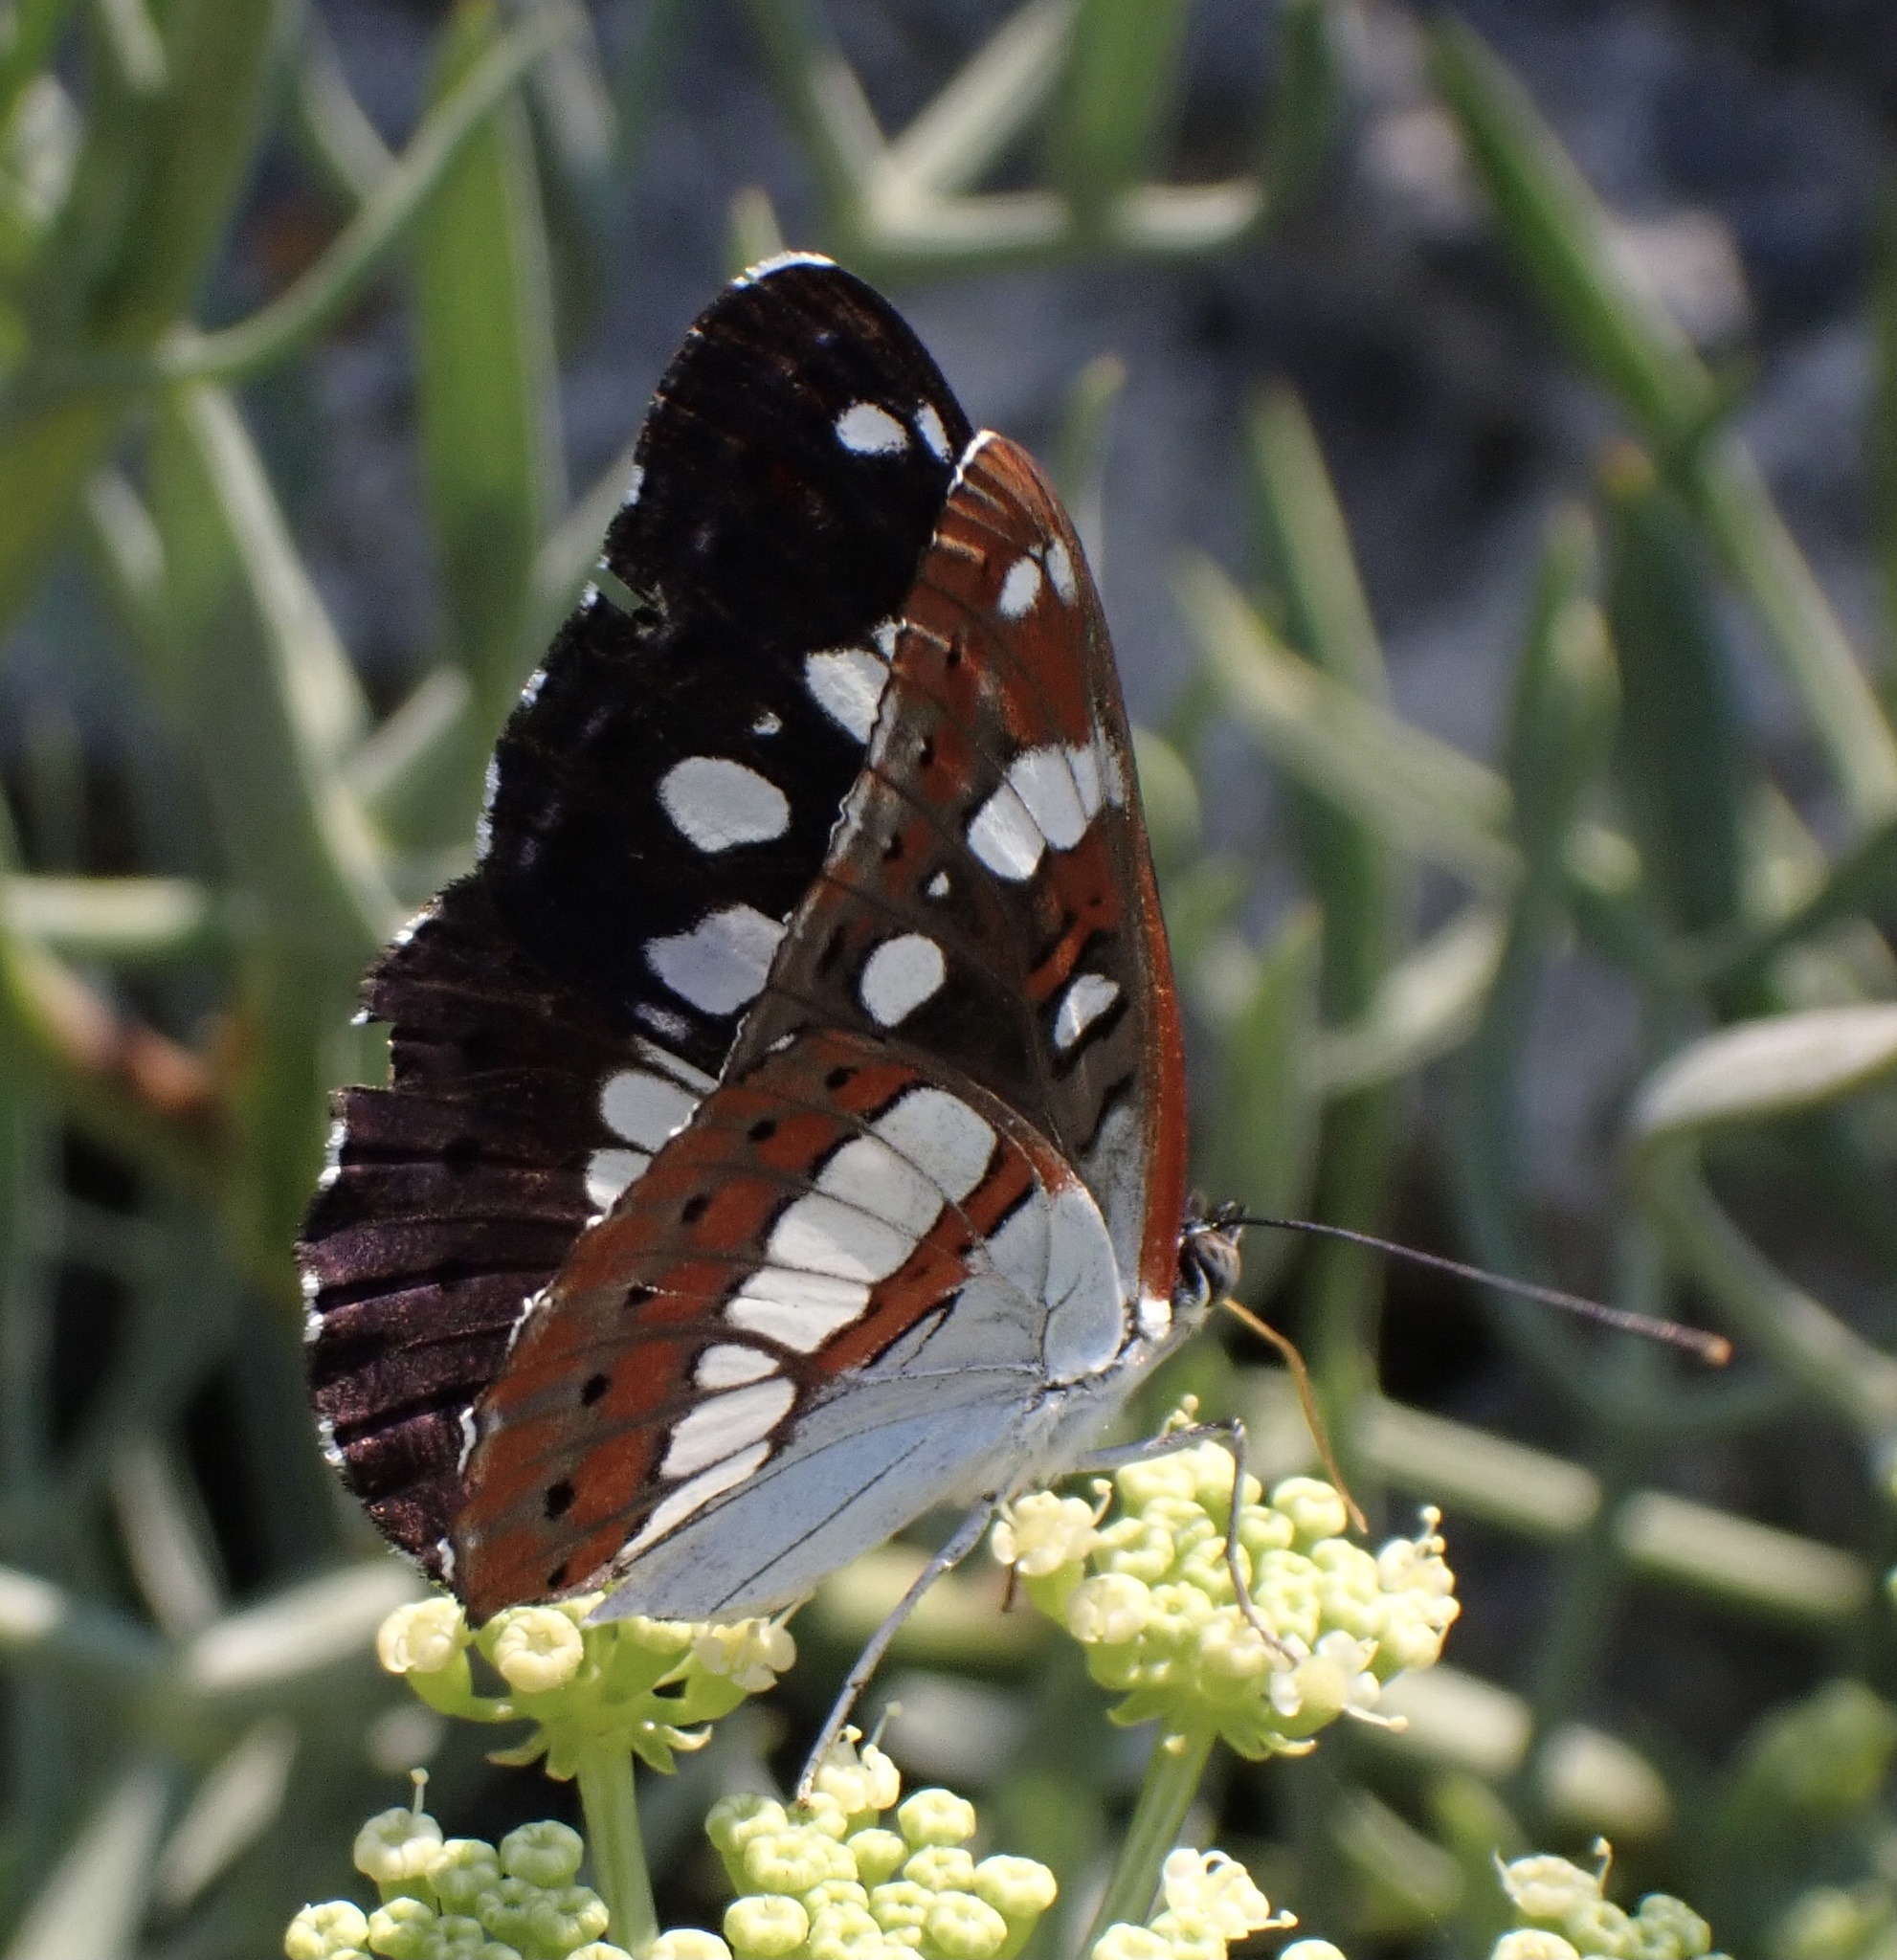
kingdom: Animalia
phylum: Arthropoda
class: Insecta
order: Lepidoptera
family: Nymphalidae
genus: Limenitis
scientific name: Limenitis reducta
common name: Southern white admiral
